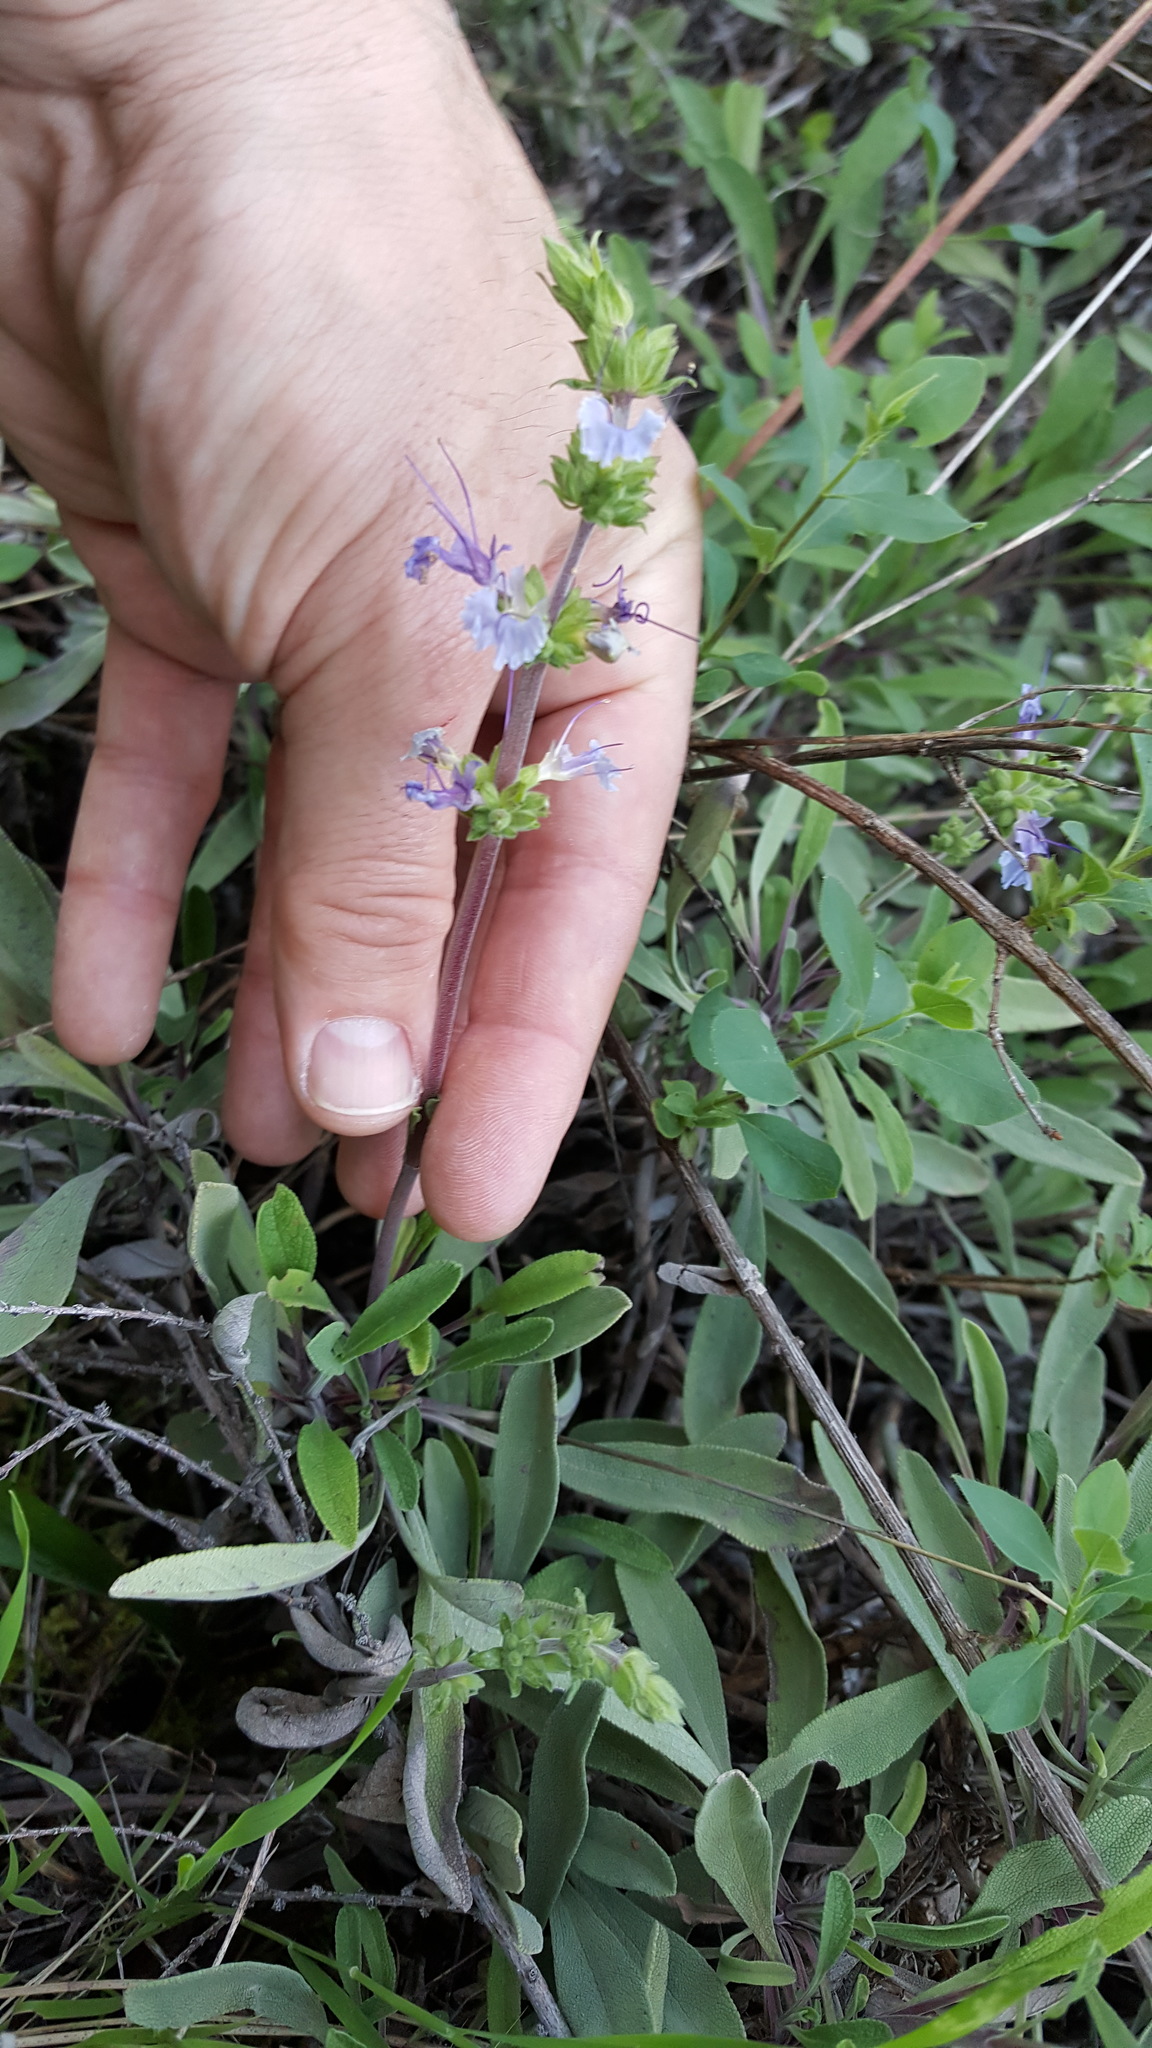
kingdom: Plantae
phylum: Tracheophyta
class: Magnoliopsida
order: Lamiales
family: Lamiaceae
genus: Salvia
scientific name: Salvia sonomensis
